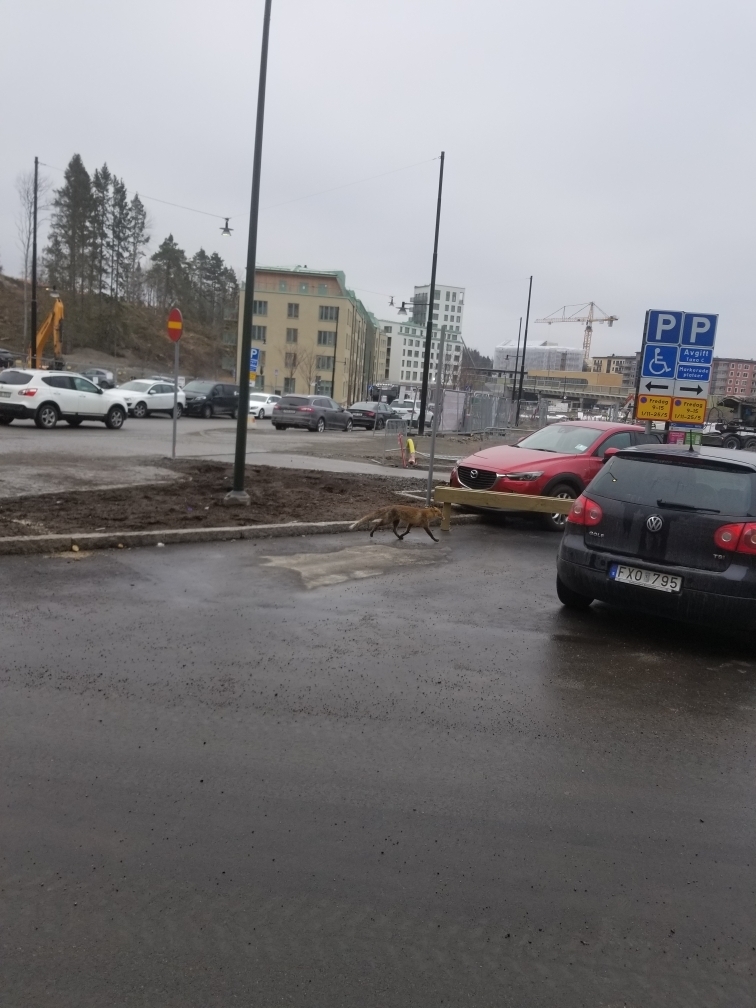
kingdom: Animalia
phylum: Chordata
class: Mammalia
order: Carnivora
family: Canidae
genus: Vulpes
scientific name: Vulpes vulpes
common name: Red fox
